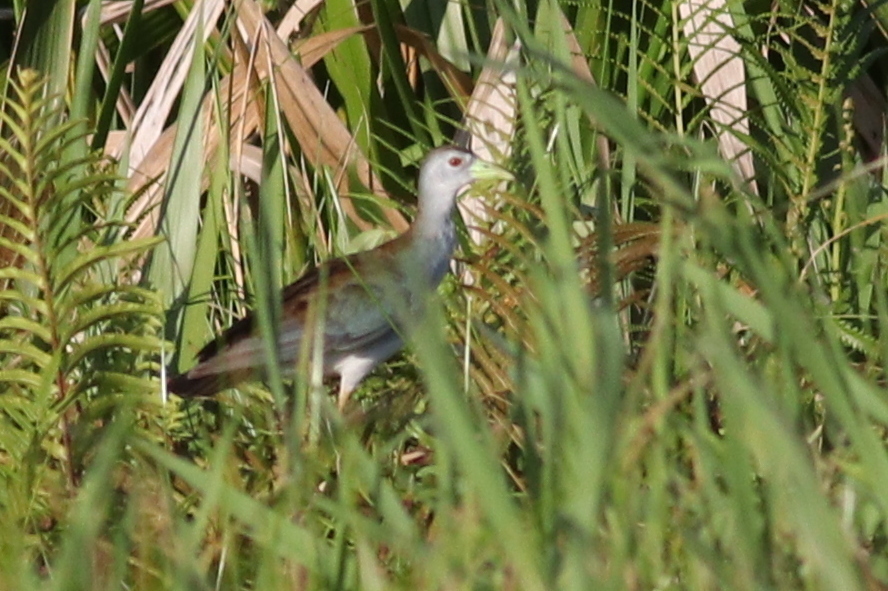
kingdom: Animalia
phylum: Chordata
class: Aves
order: Gruiformes
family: Rallidae
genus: Porphyrio
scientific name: Porphyrio flavirostris
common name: Azure gallinule
